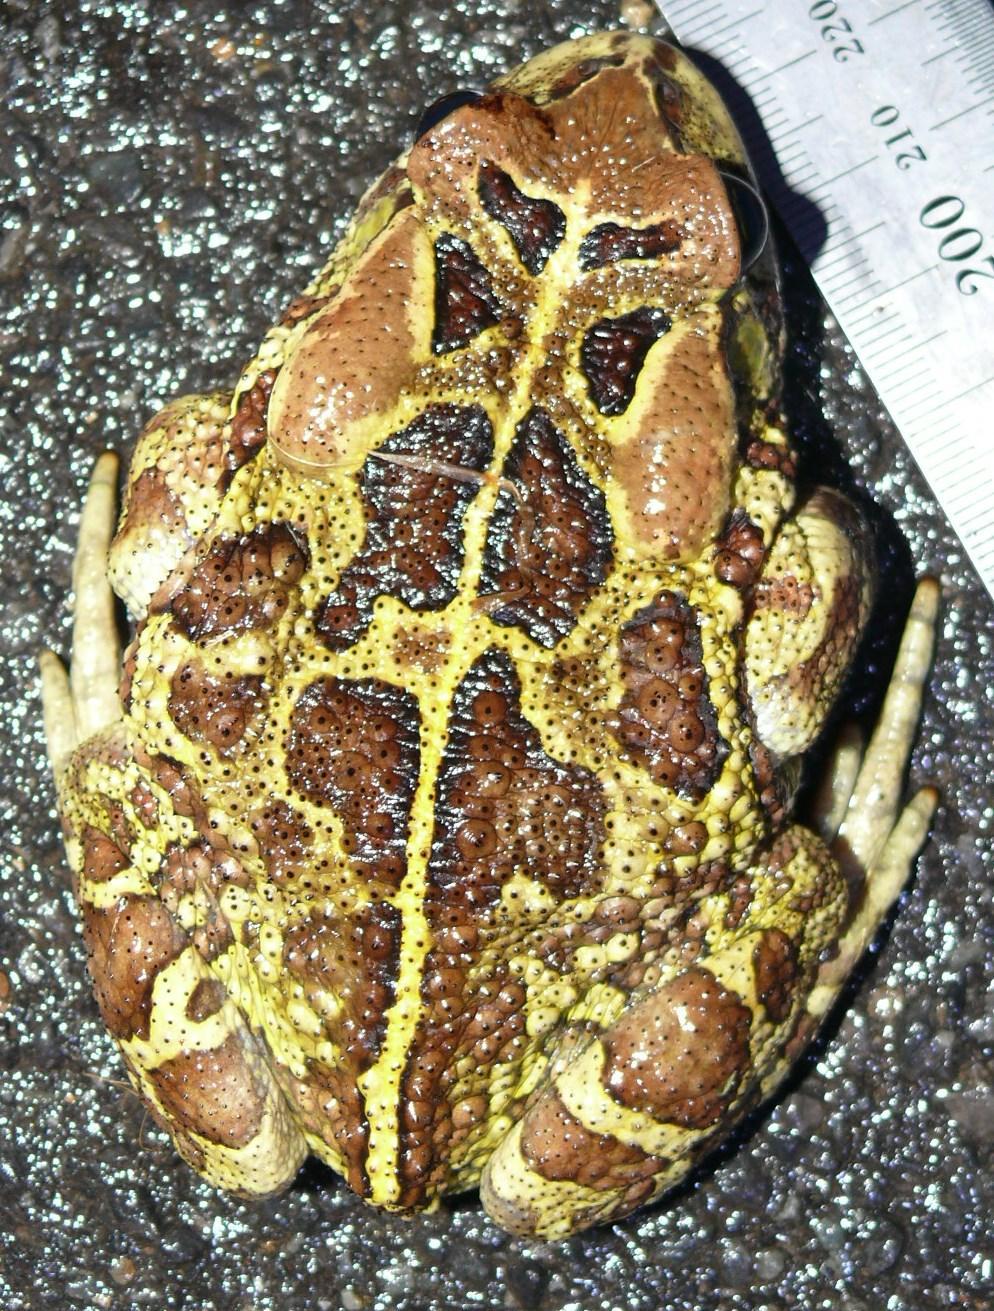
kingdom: Animalia
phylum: Chordata
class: Amphibia
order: Anura
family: Bufonidae
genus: Sclerophrys
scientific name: Sclerophrys pantherina
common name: Panther toad
